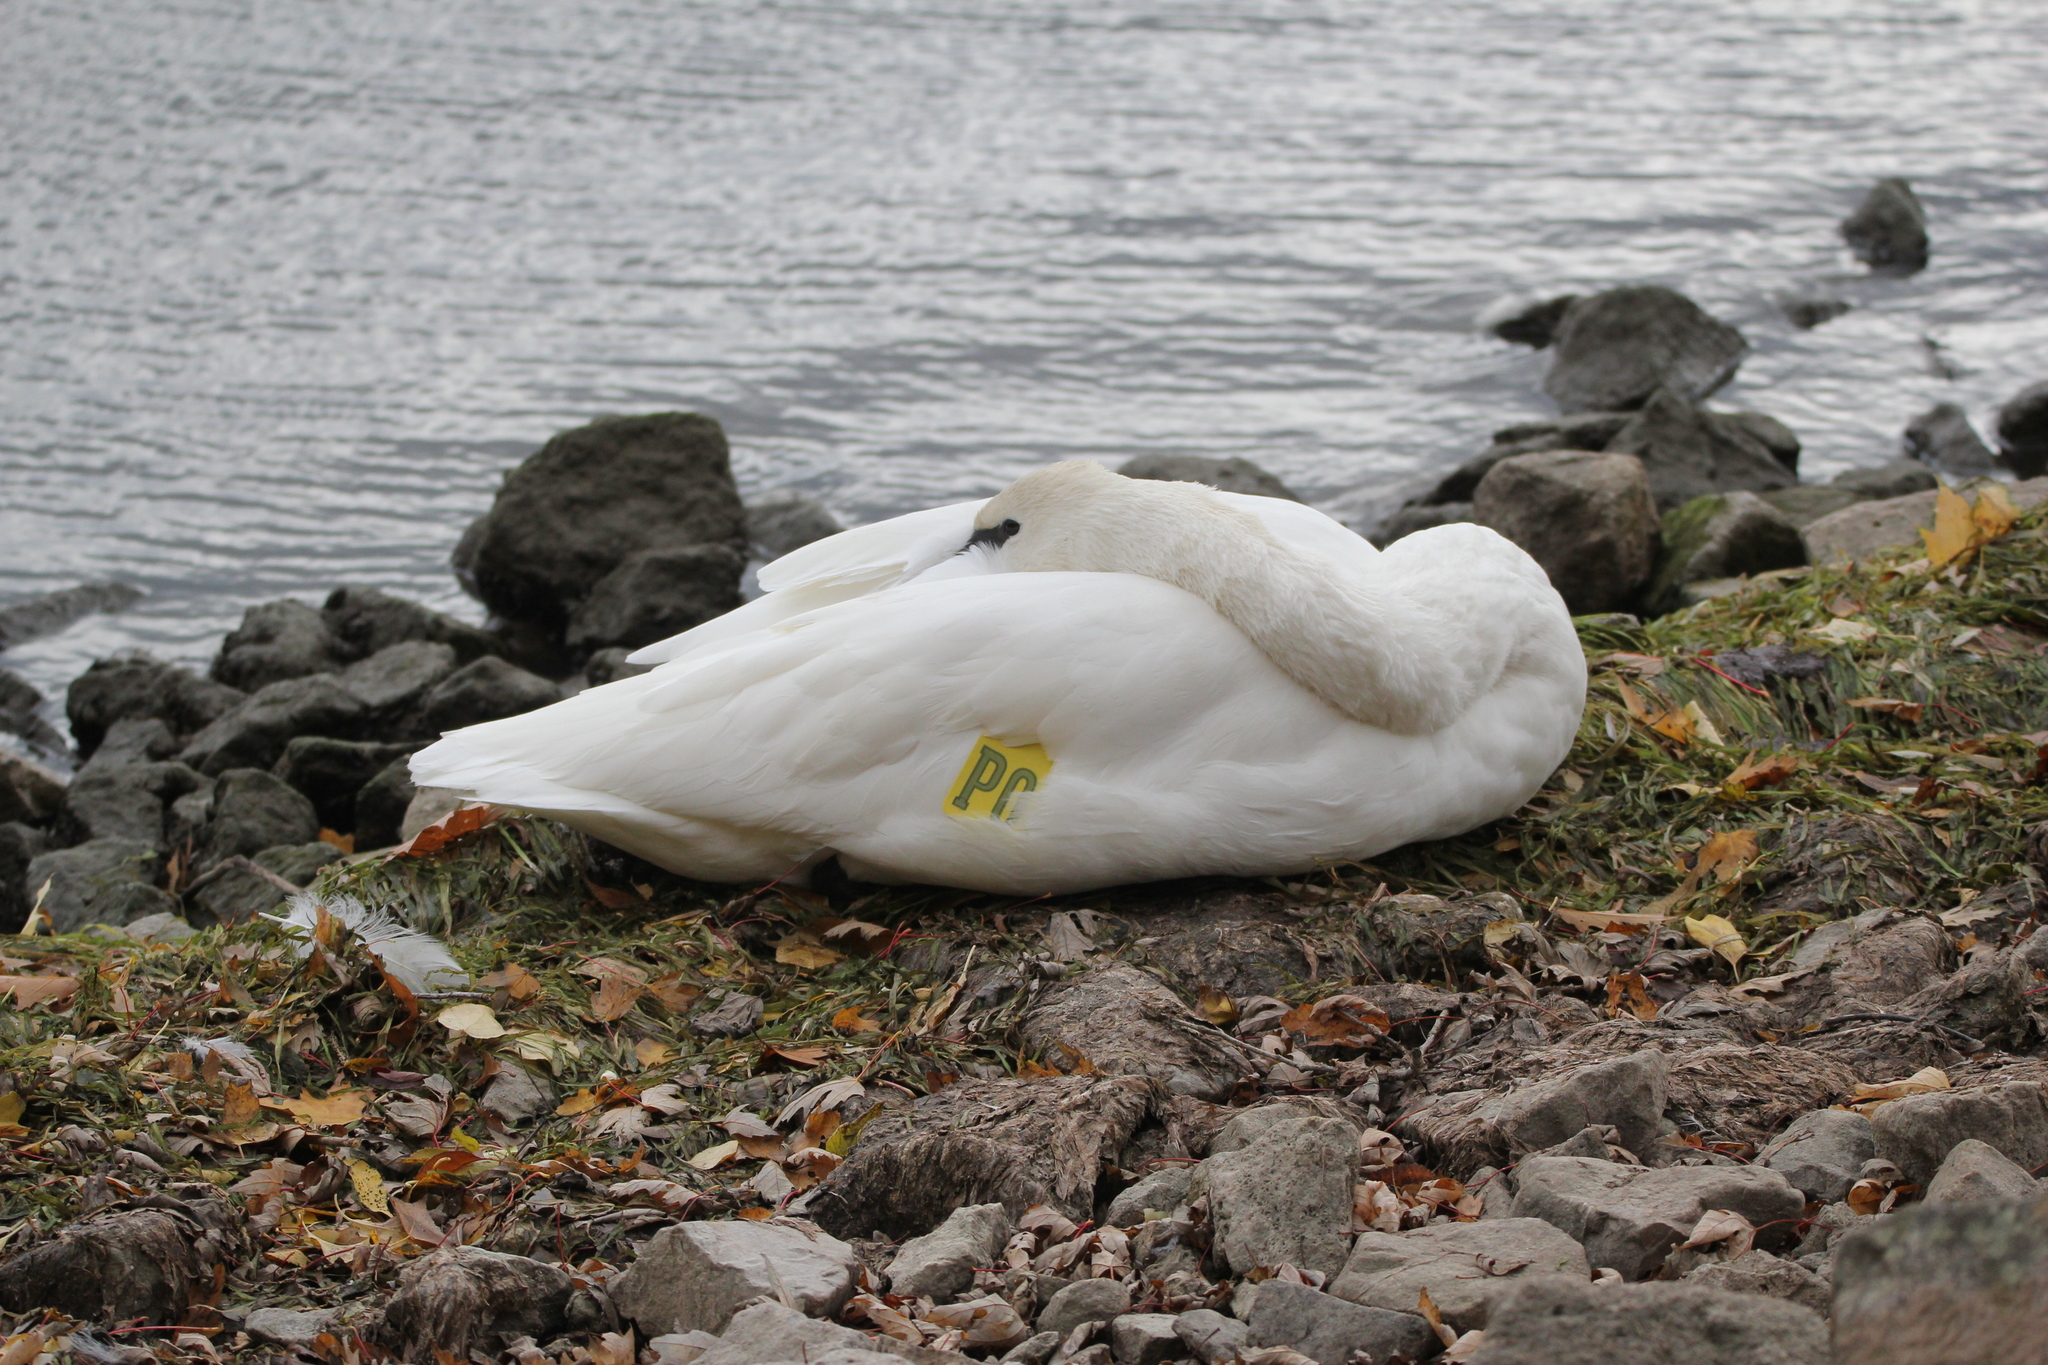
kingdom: Animalia
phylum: Chordata
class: Aves
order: Anseriformes
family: Anatidae
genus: Cygnus
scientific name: Cygnus buccinator
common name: Trumpeter swan
